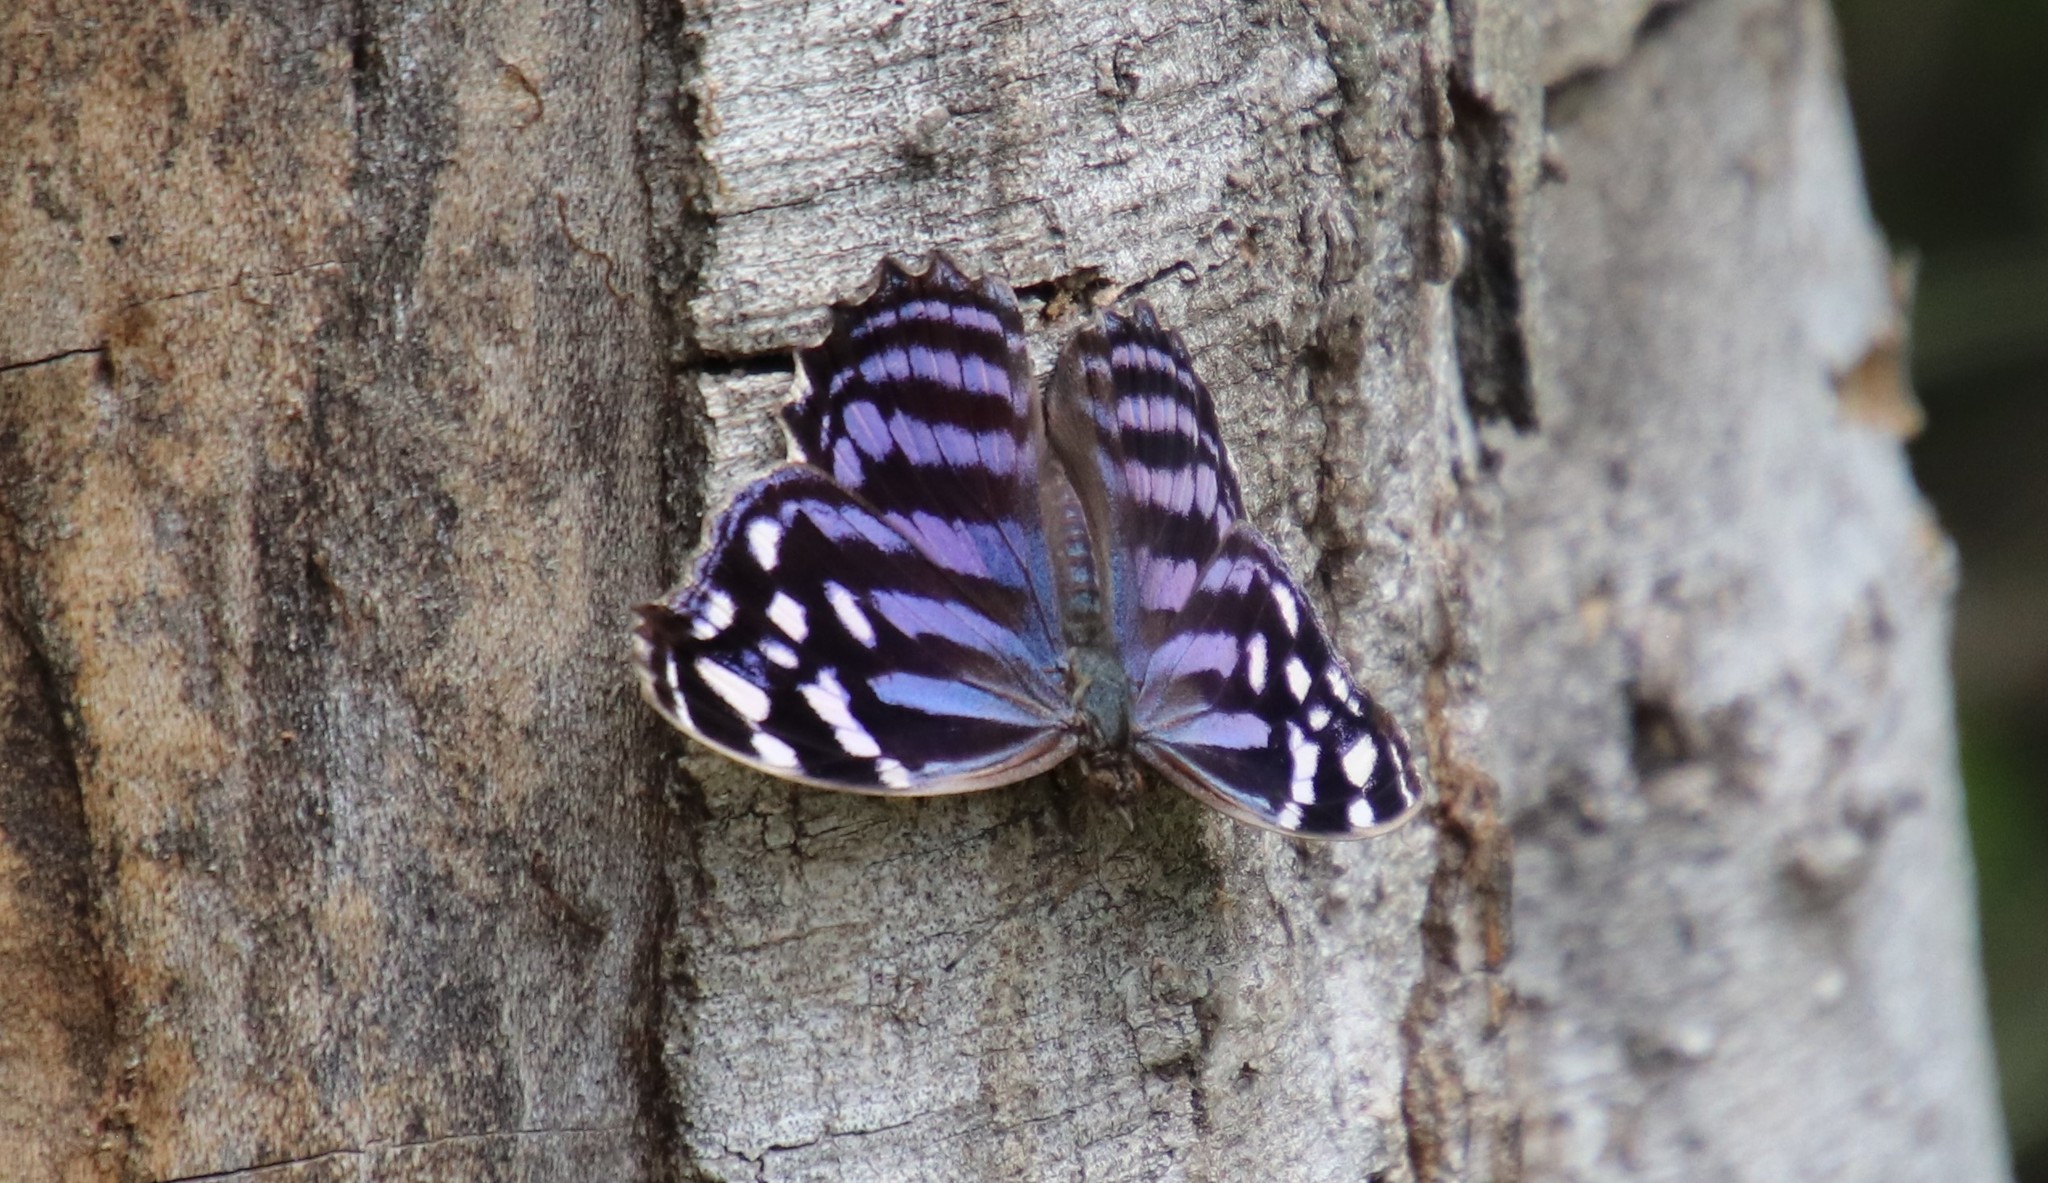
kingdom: Animalia
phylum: Arthropoda
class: Insecta
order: Lepidoptera
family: Nymphalidae
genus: Myscelia
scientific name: Myscelia ethusa
